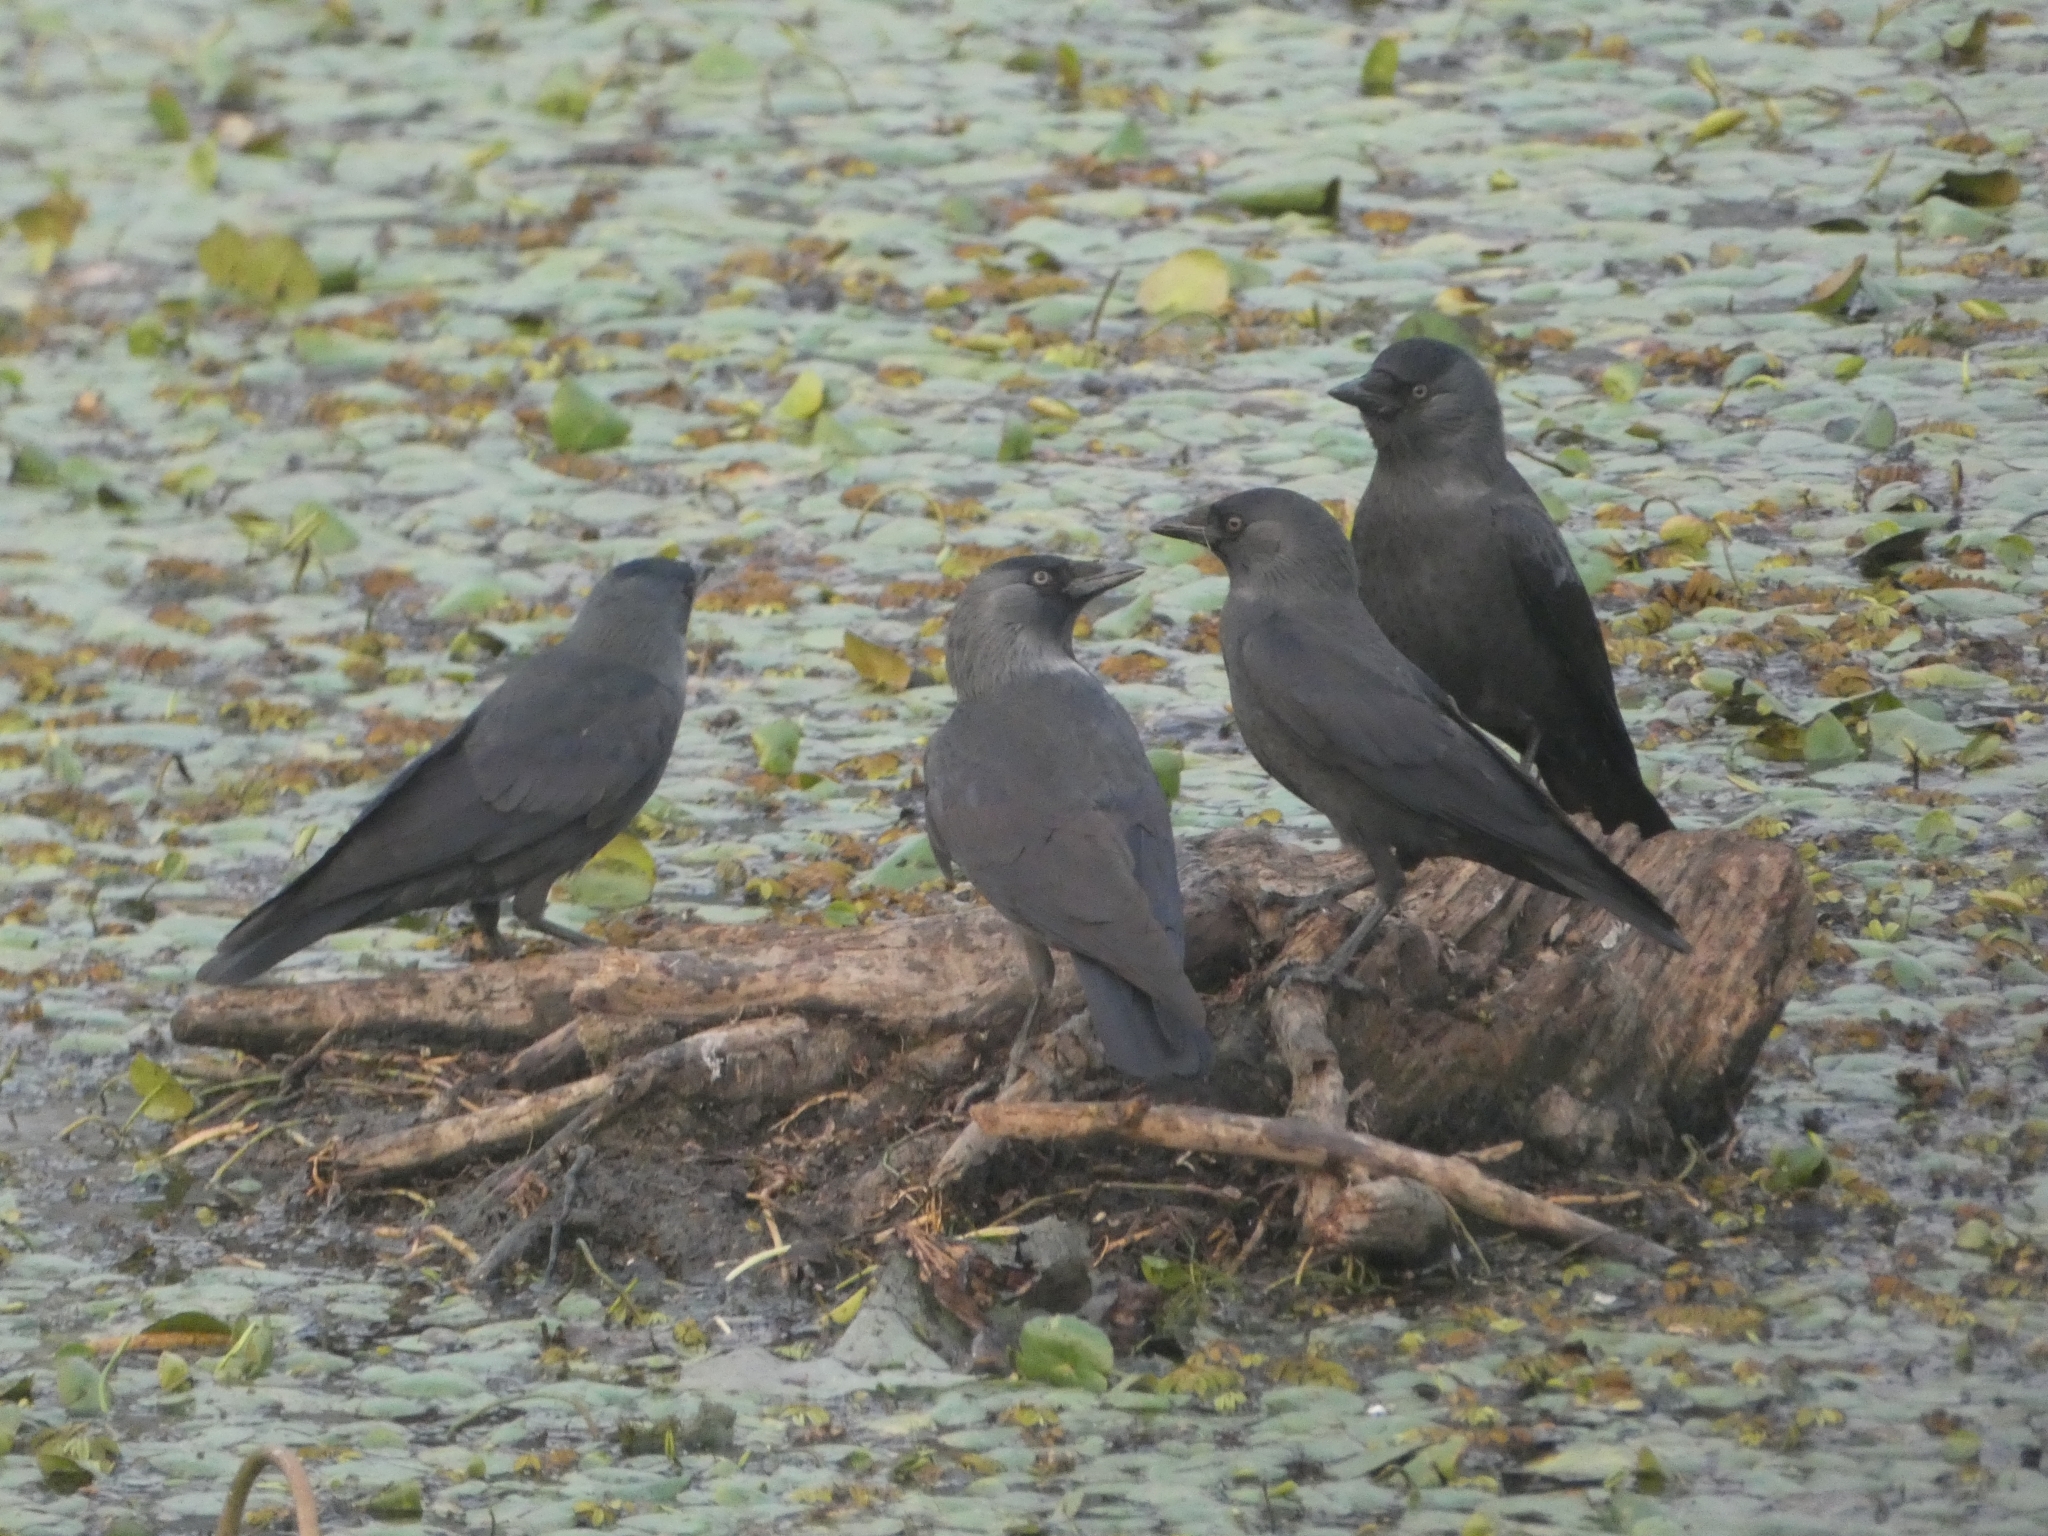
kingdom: Animalia
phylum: Chordata
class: Aves
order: Passeriformes
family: Corvidae
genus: Coloeus
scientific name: Coloeus monedula
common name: Western jackdaw
